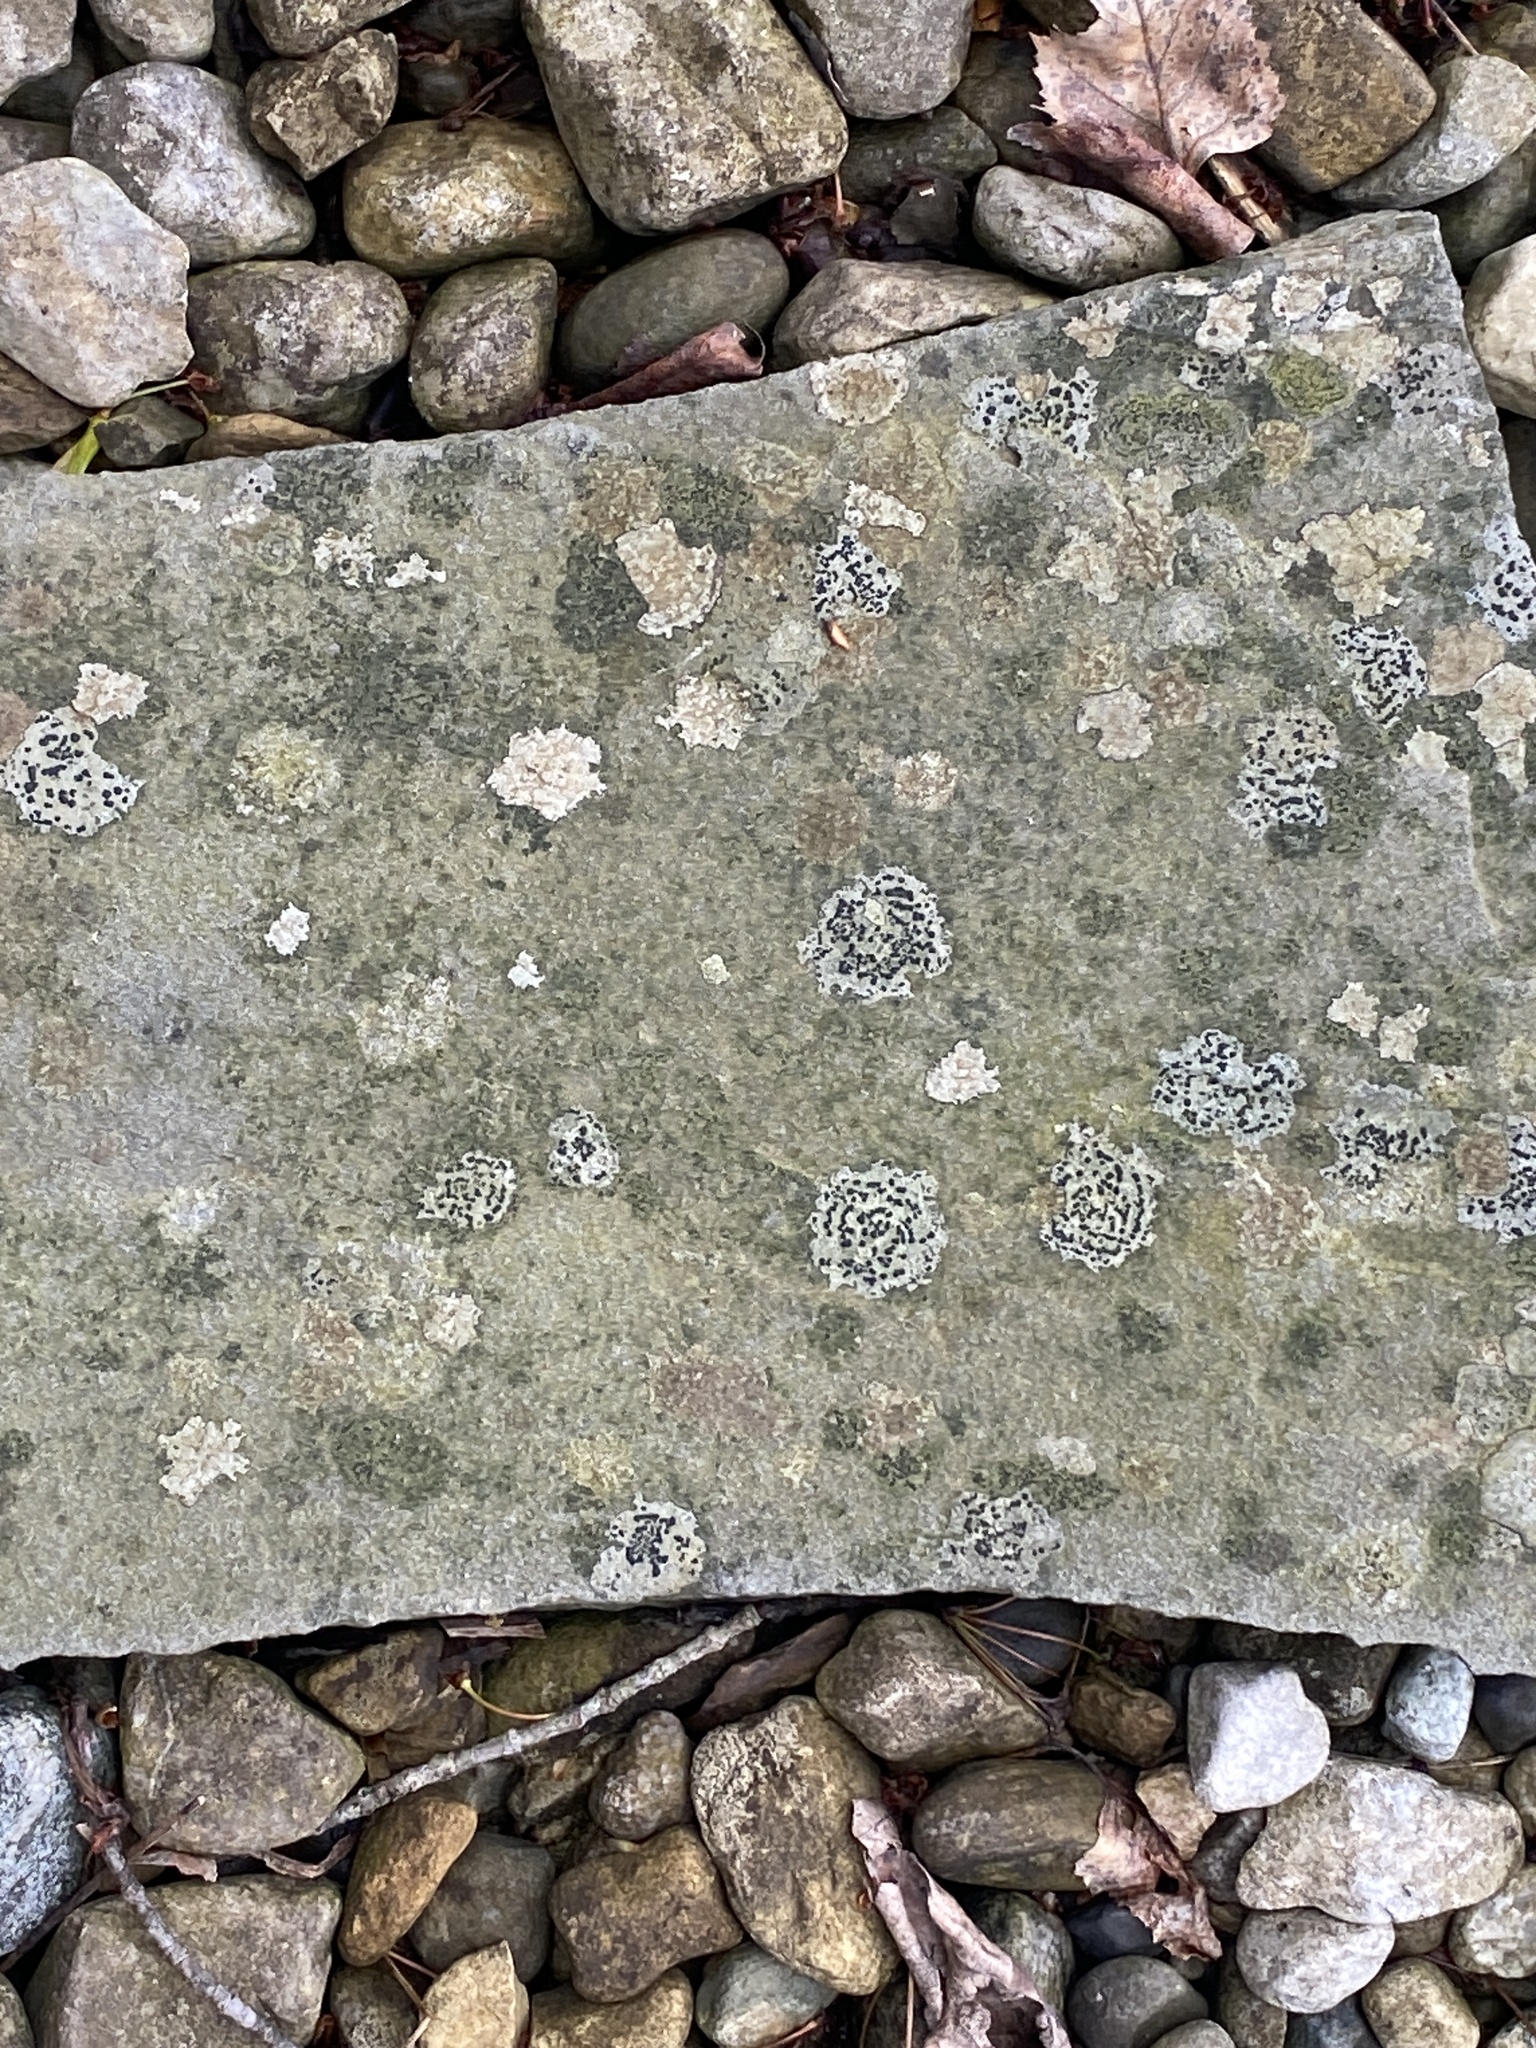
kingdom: Fungi
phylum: Ascomycota
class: Lecanoromycetes
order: Lecideales
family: Lecideaceae
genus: Porpidia
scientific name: Porpidia crustulata
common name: Concentric boulder lichen
